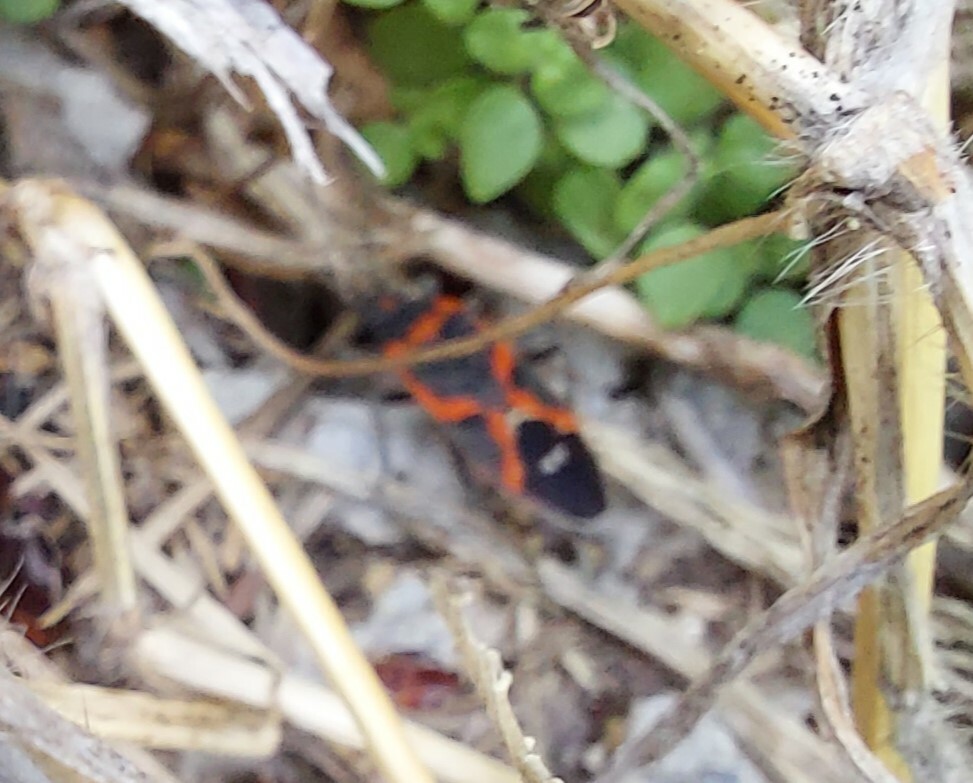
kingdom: Animalia
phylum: Arthropoda
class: Insecta
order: Hemiptera
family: Lygaeidae
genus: Lygaeus
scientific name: Lygaeus kalmii
